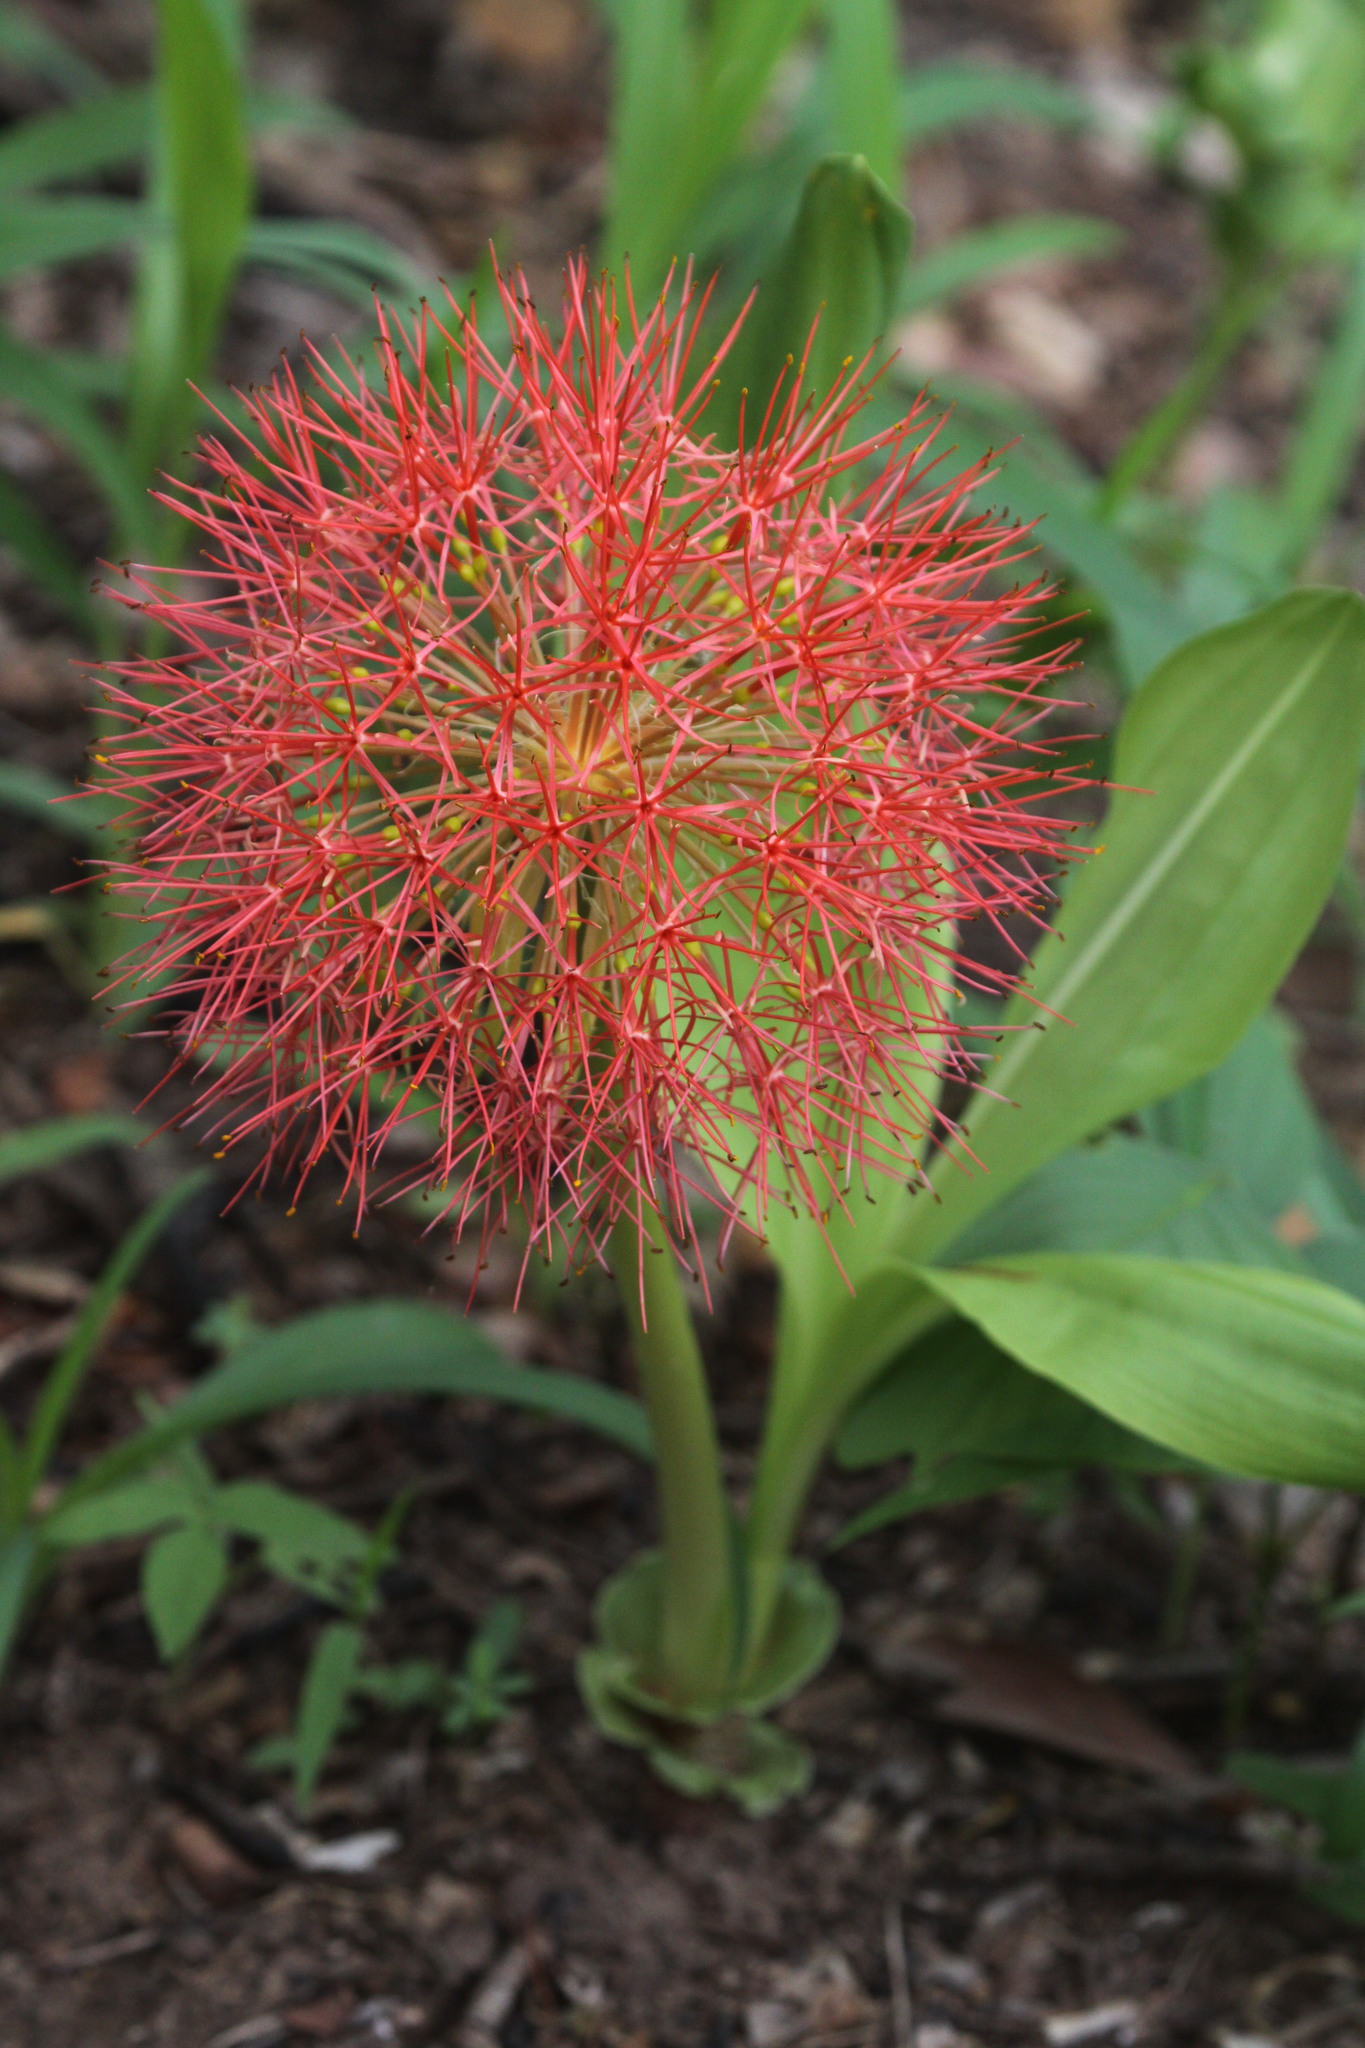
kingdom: Plantae
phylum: Tracheophyta
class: Liliopsida
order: Asparagales
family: Amaryllidaceae
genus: Scadoxus
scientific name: Scadoxus multiflorus
